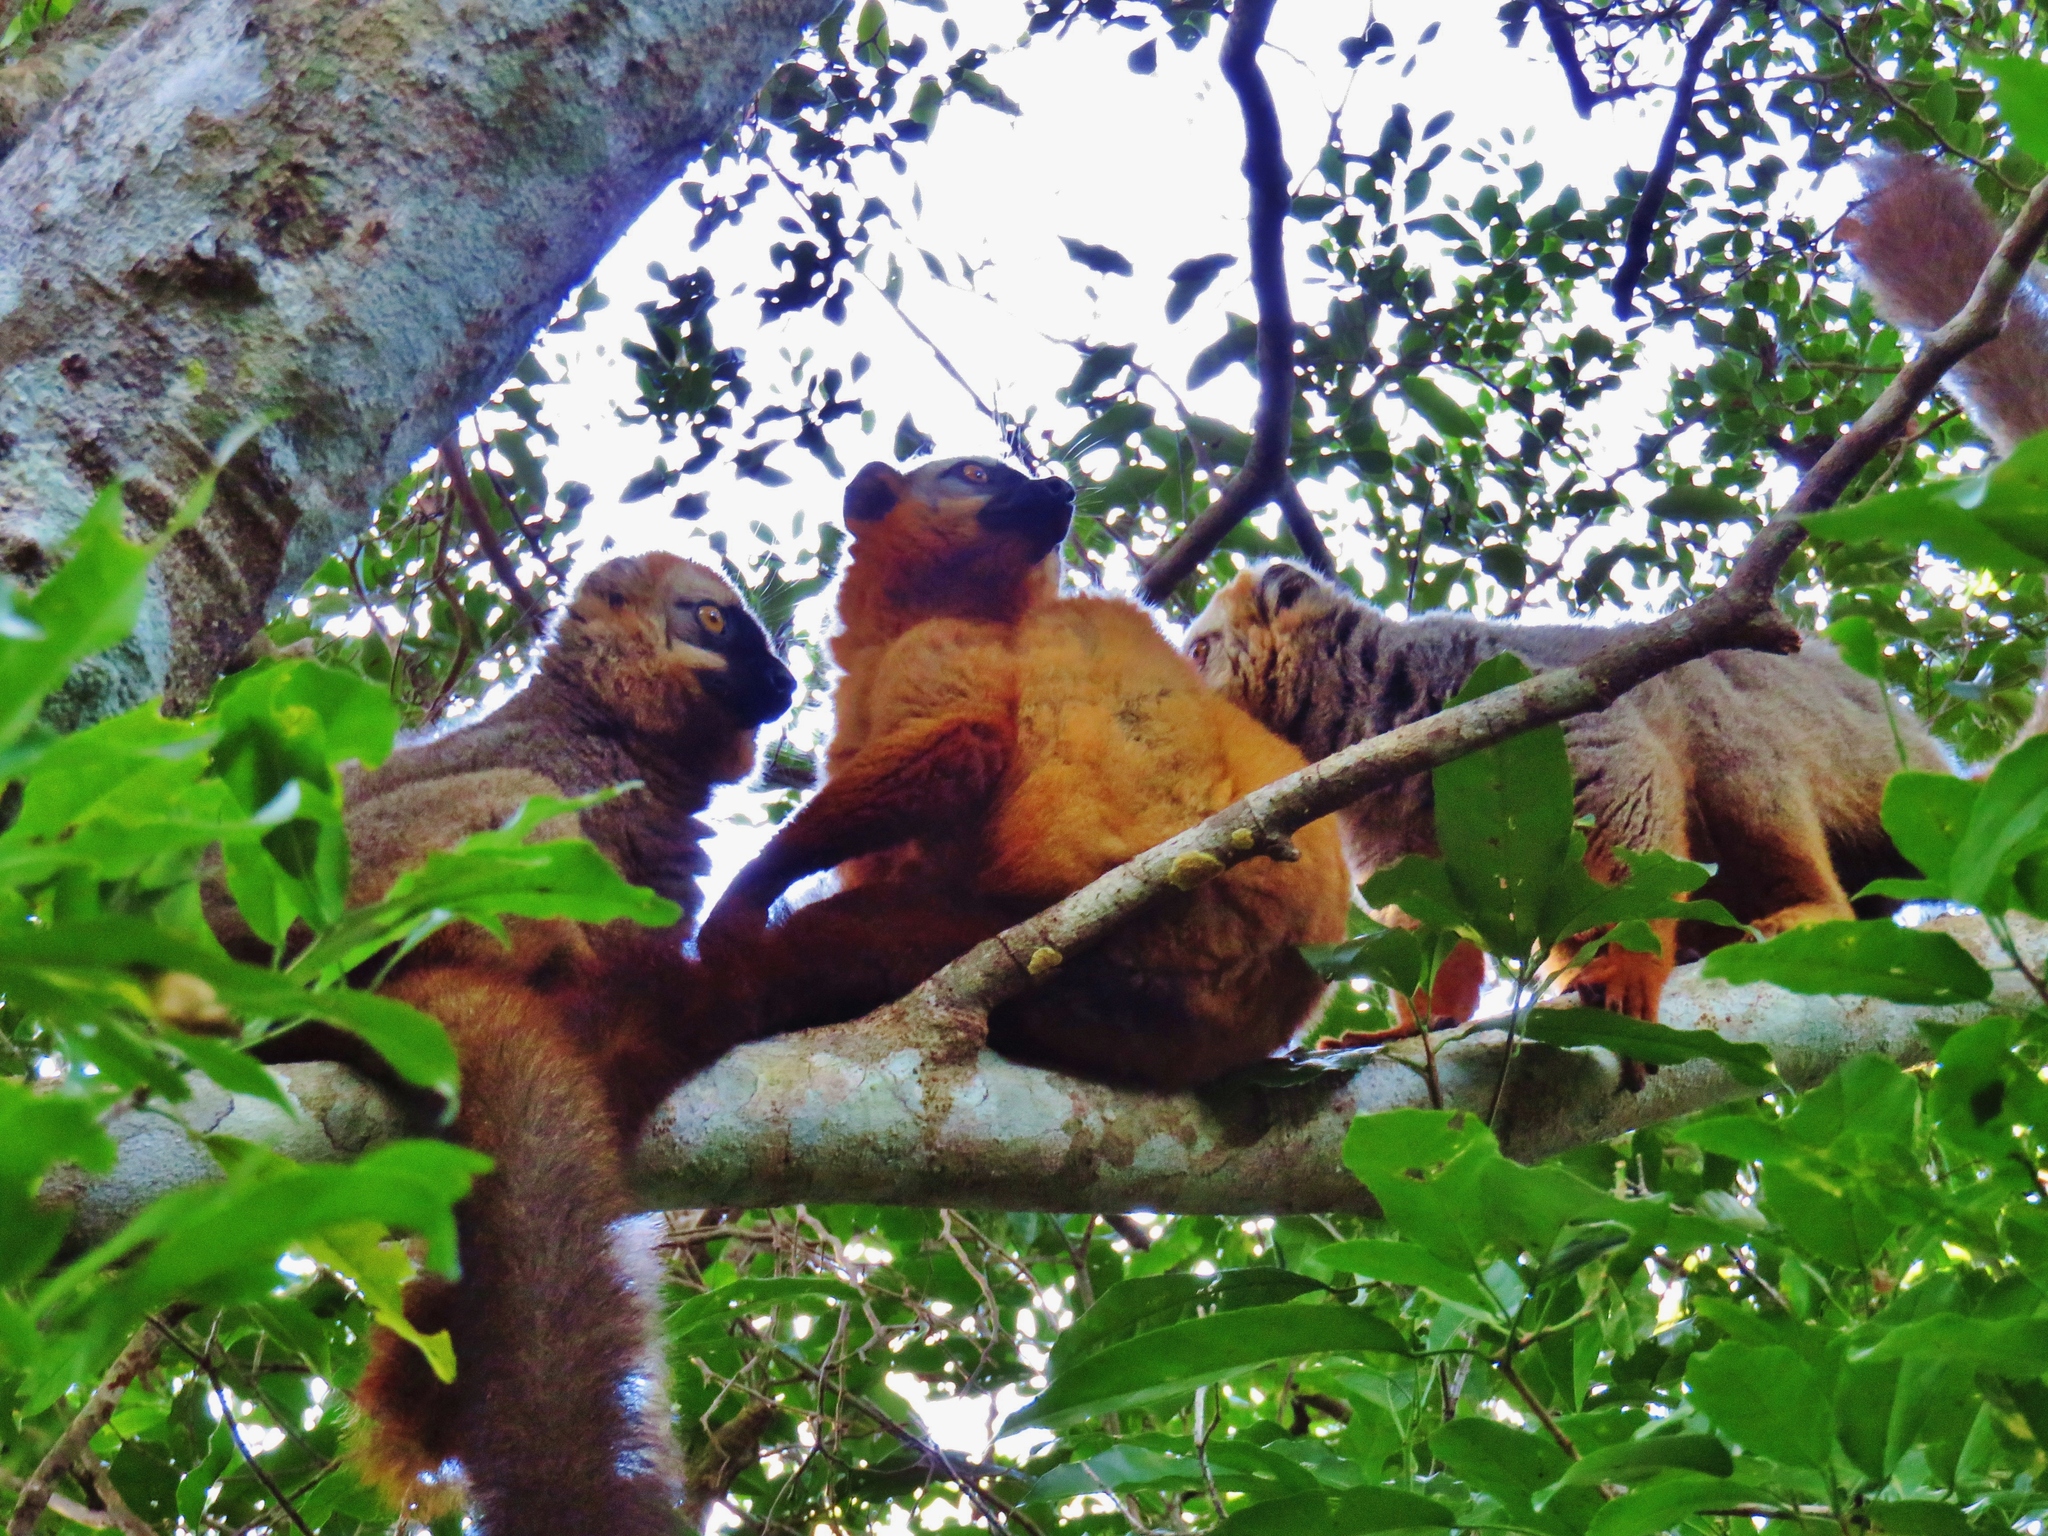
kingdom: Animalia
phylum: Chordata
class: Mammalia
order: Primates
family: Lemuridae
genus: Eulemur
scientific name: Eulemur rufus
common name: Red-fronted lemur
